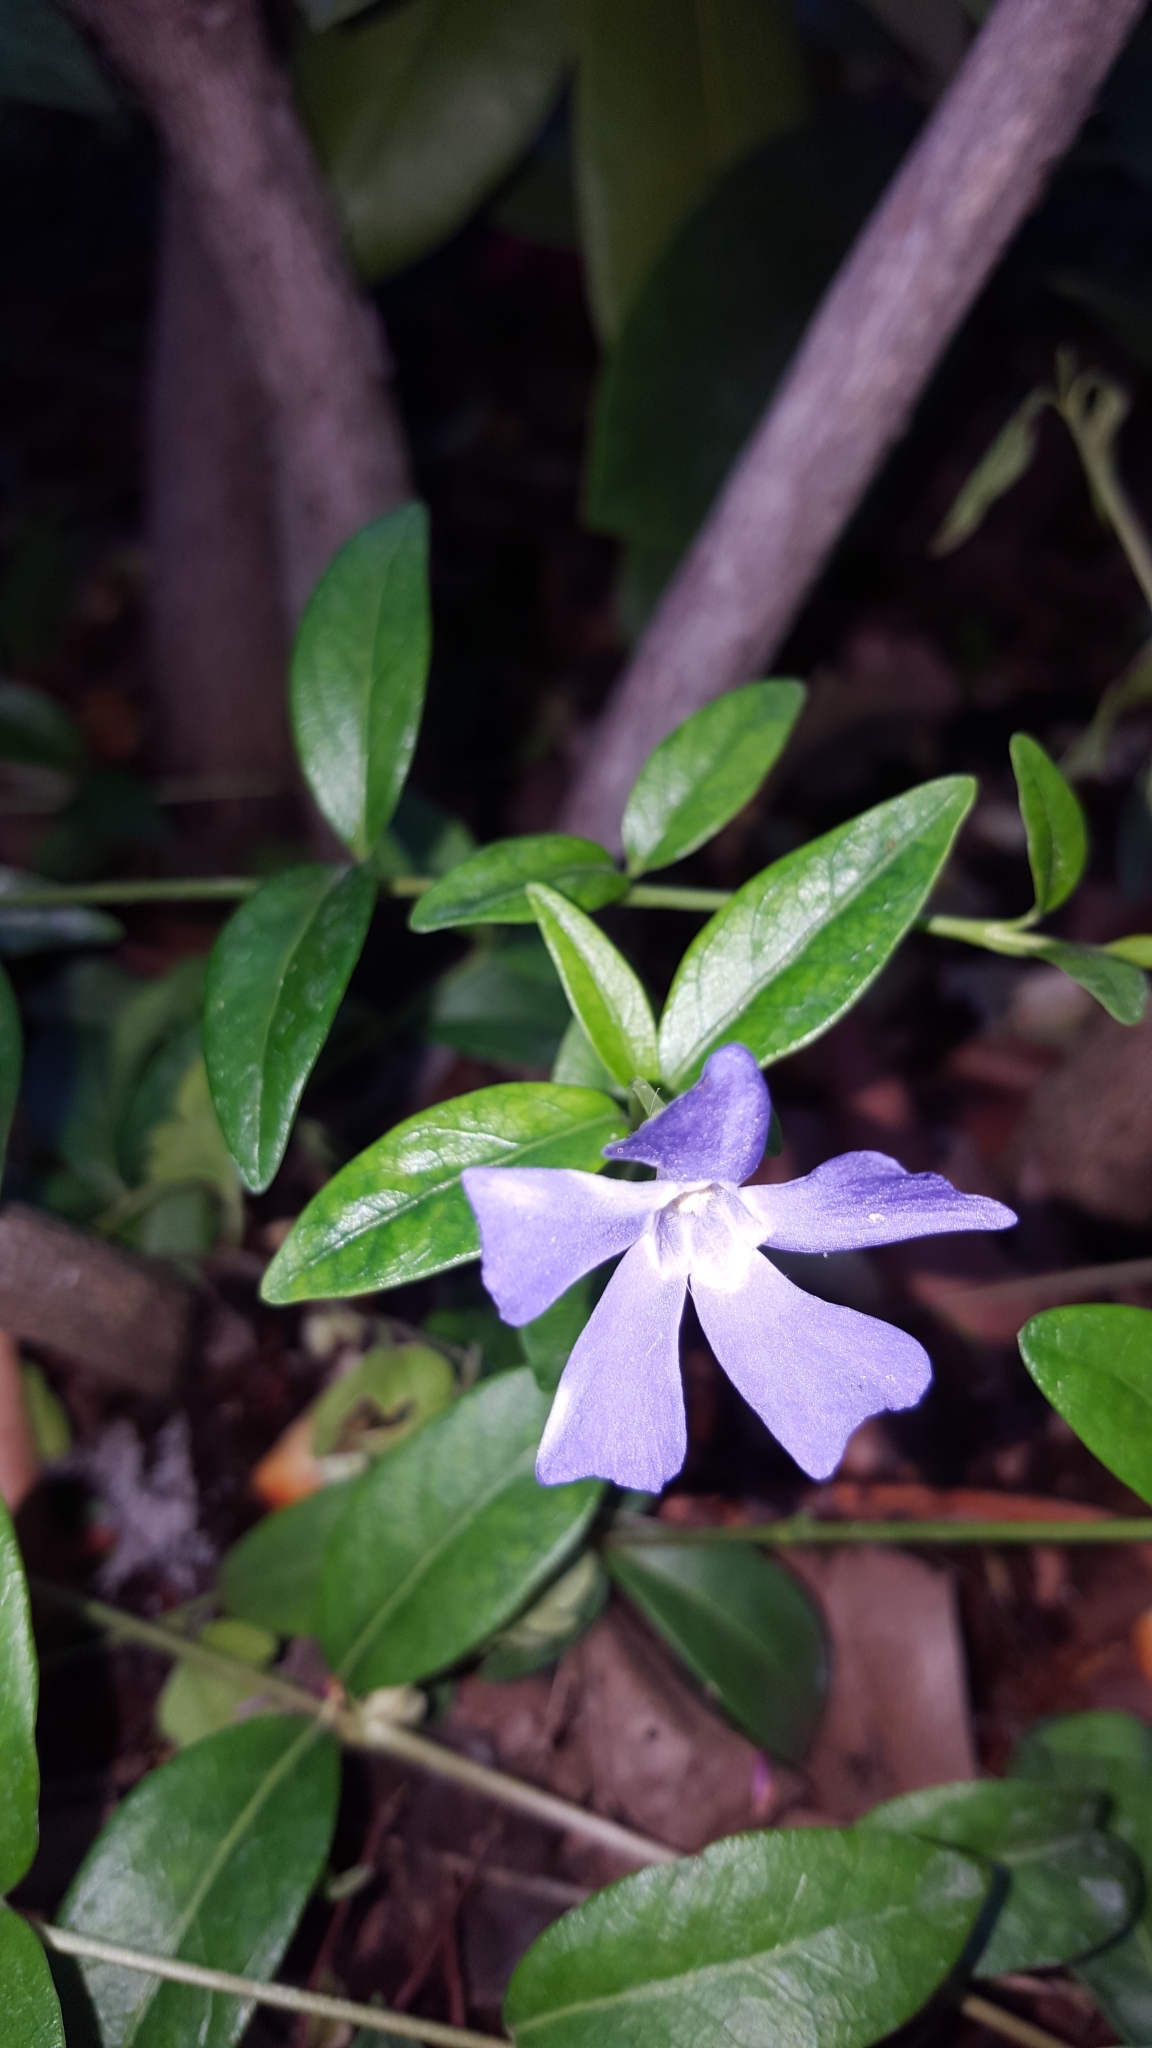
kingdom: Plantae
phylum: Tracheophyta
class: Magnoliopsida
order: Gentianales
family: Apocynaceae
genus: Vinca
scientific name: Vinca minor
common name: Lesser periwinkle
